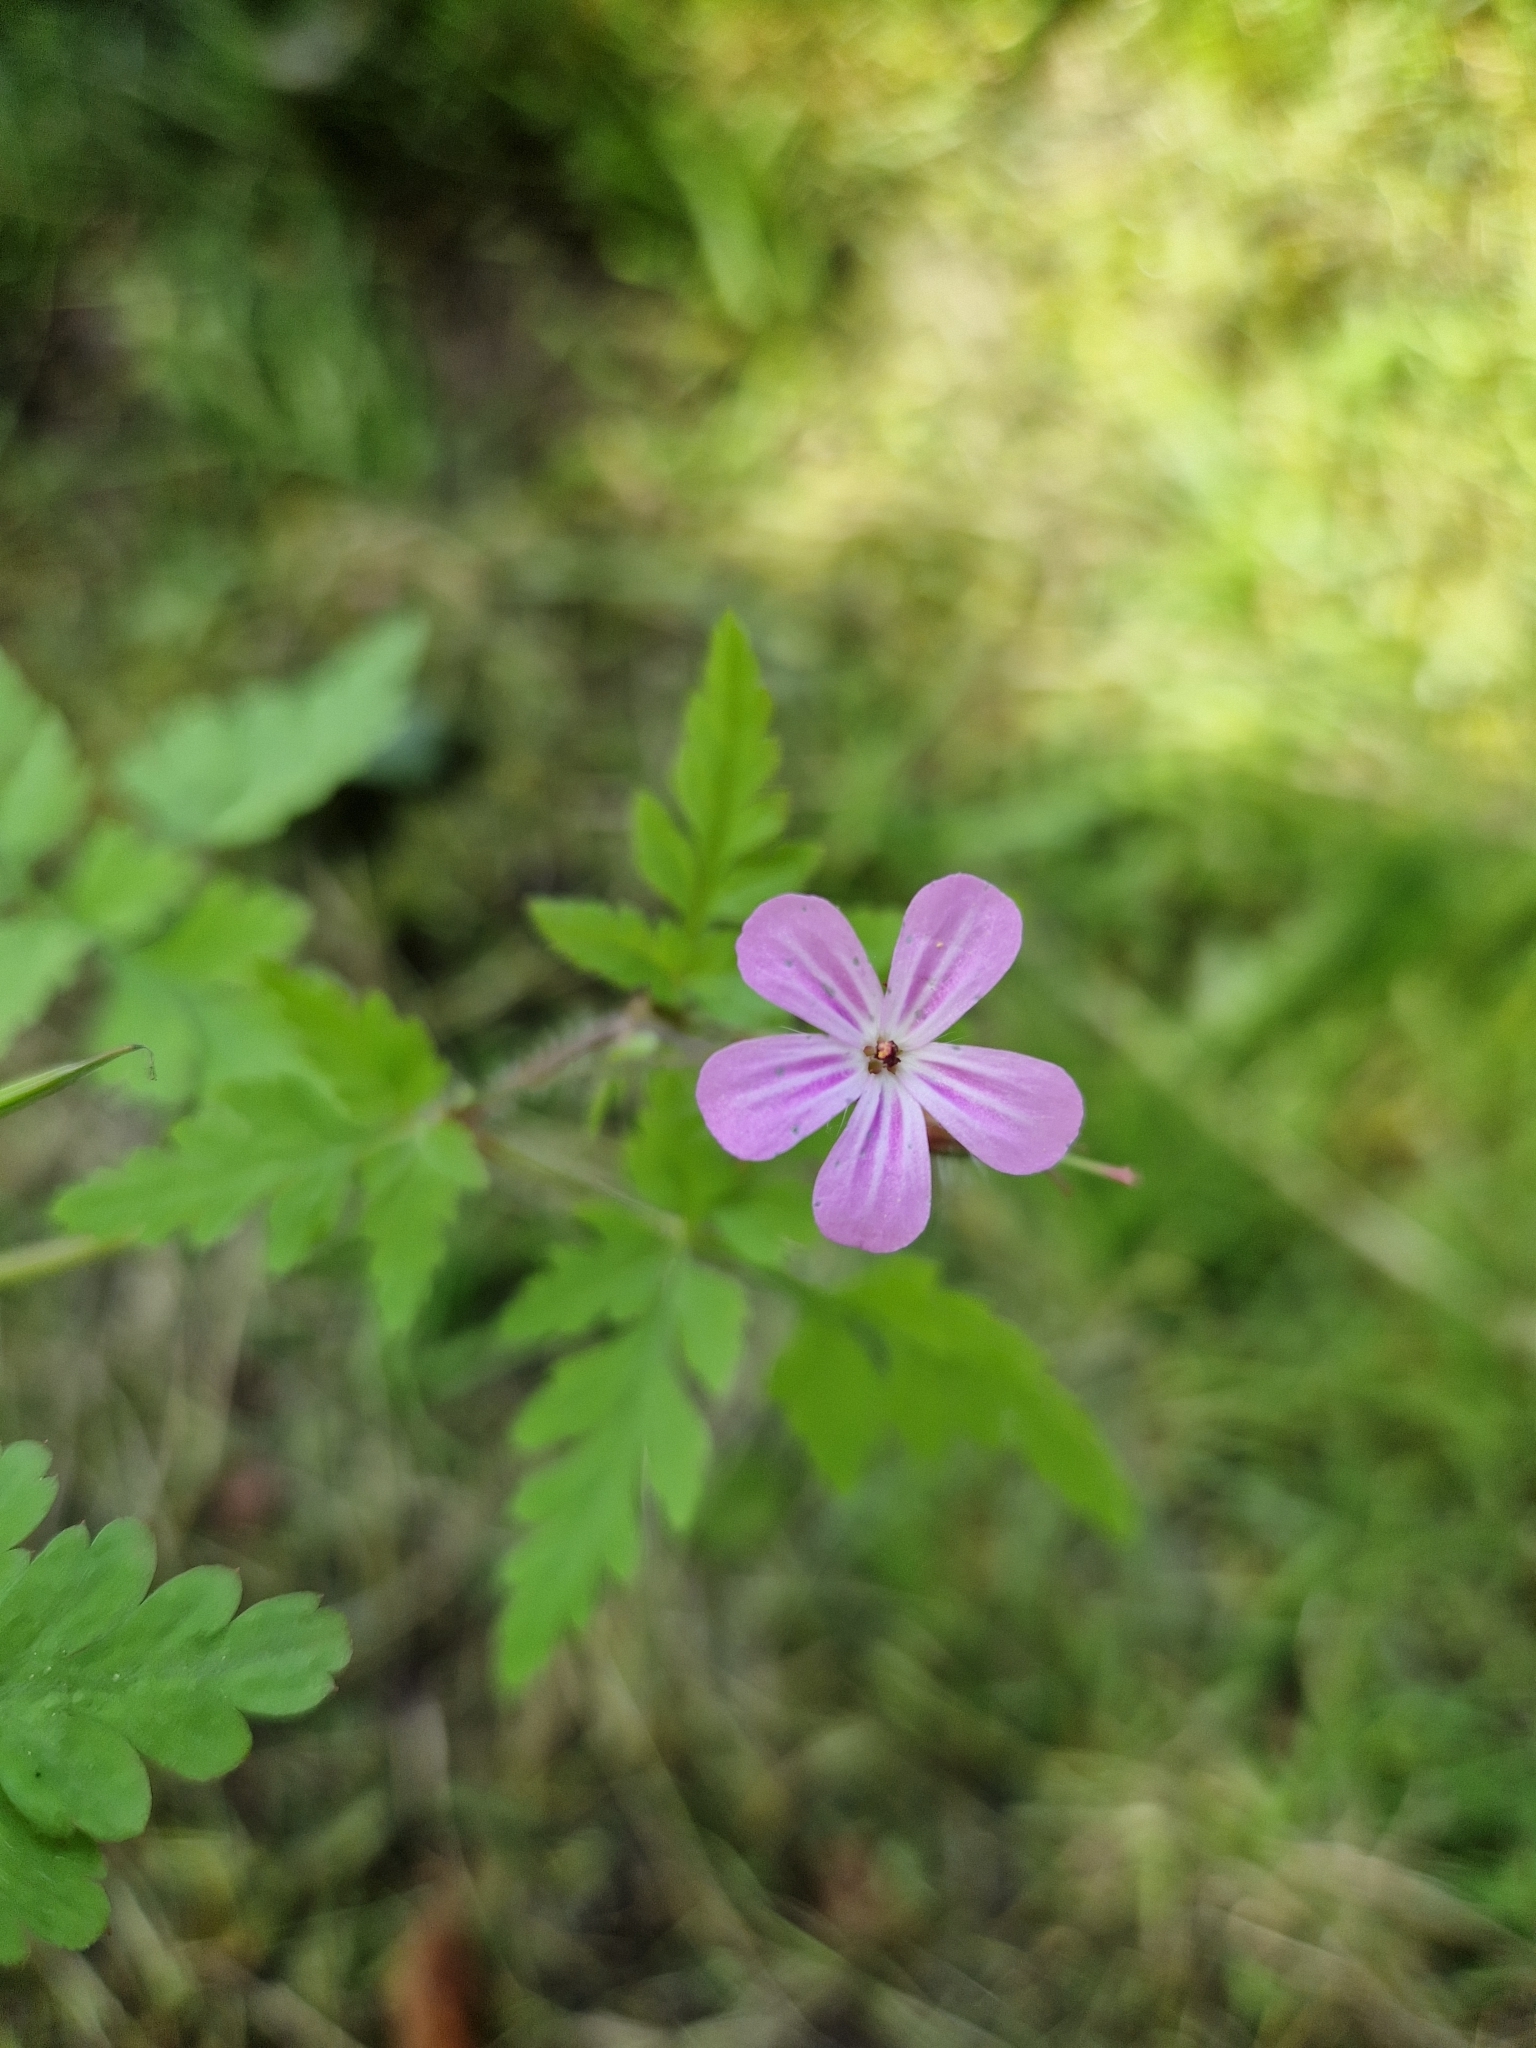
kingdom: Plantae
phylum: Tracheophyta
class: Magnoliopsida
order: Geraniales
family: Geraniaceae
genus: Geranium
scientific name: Geranium robertianum
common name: Herb-robert
